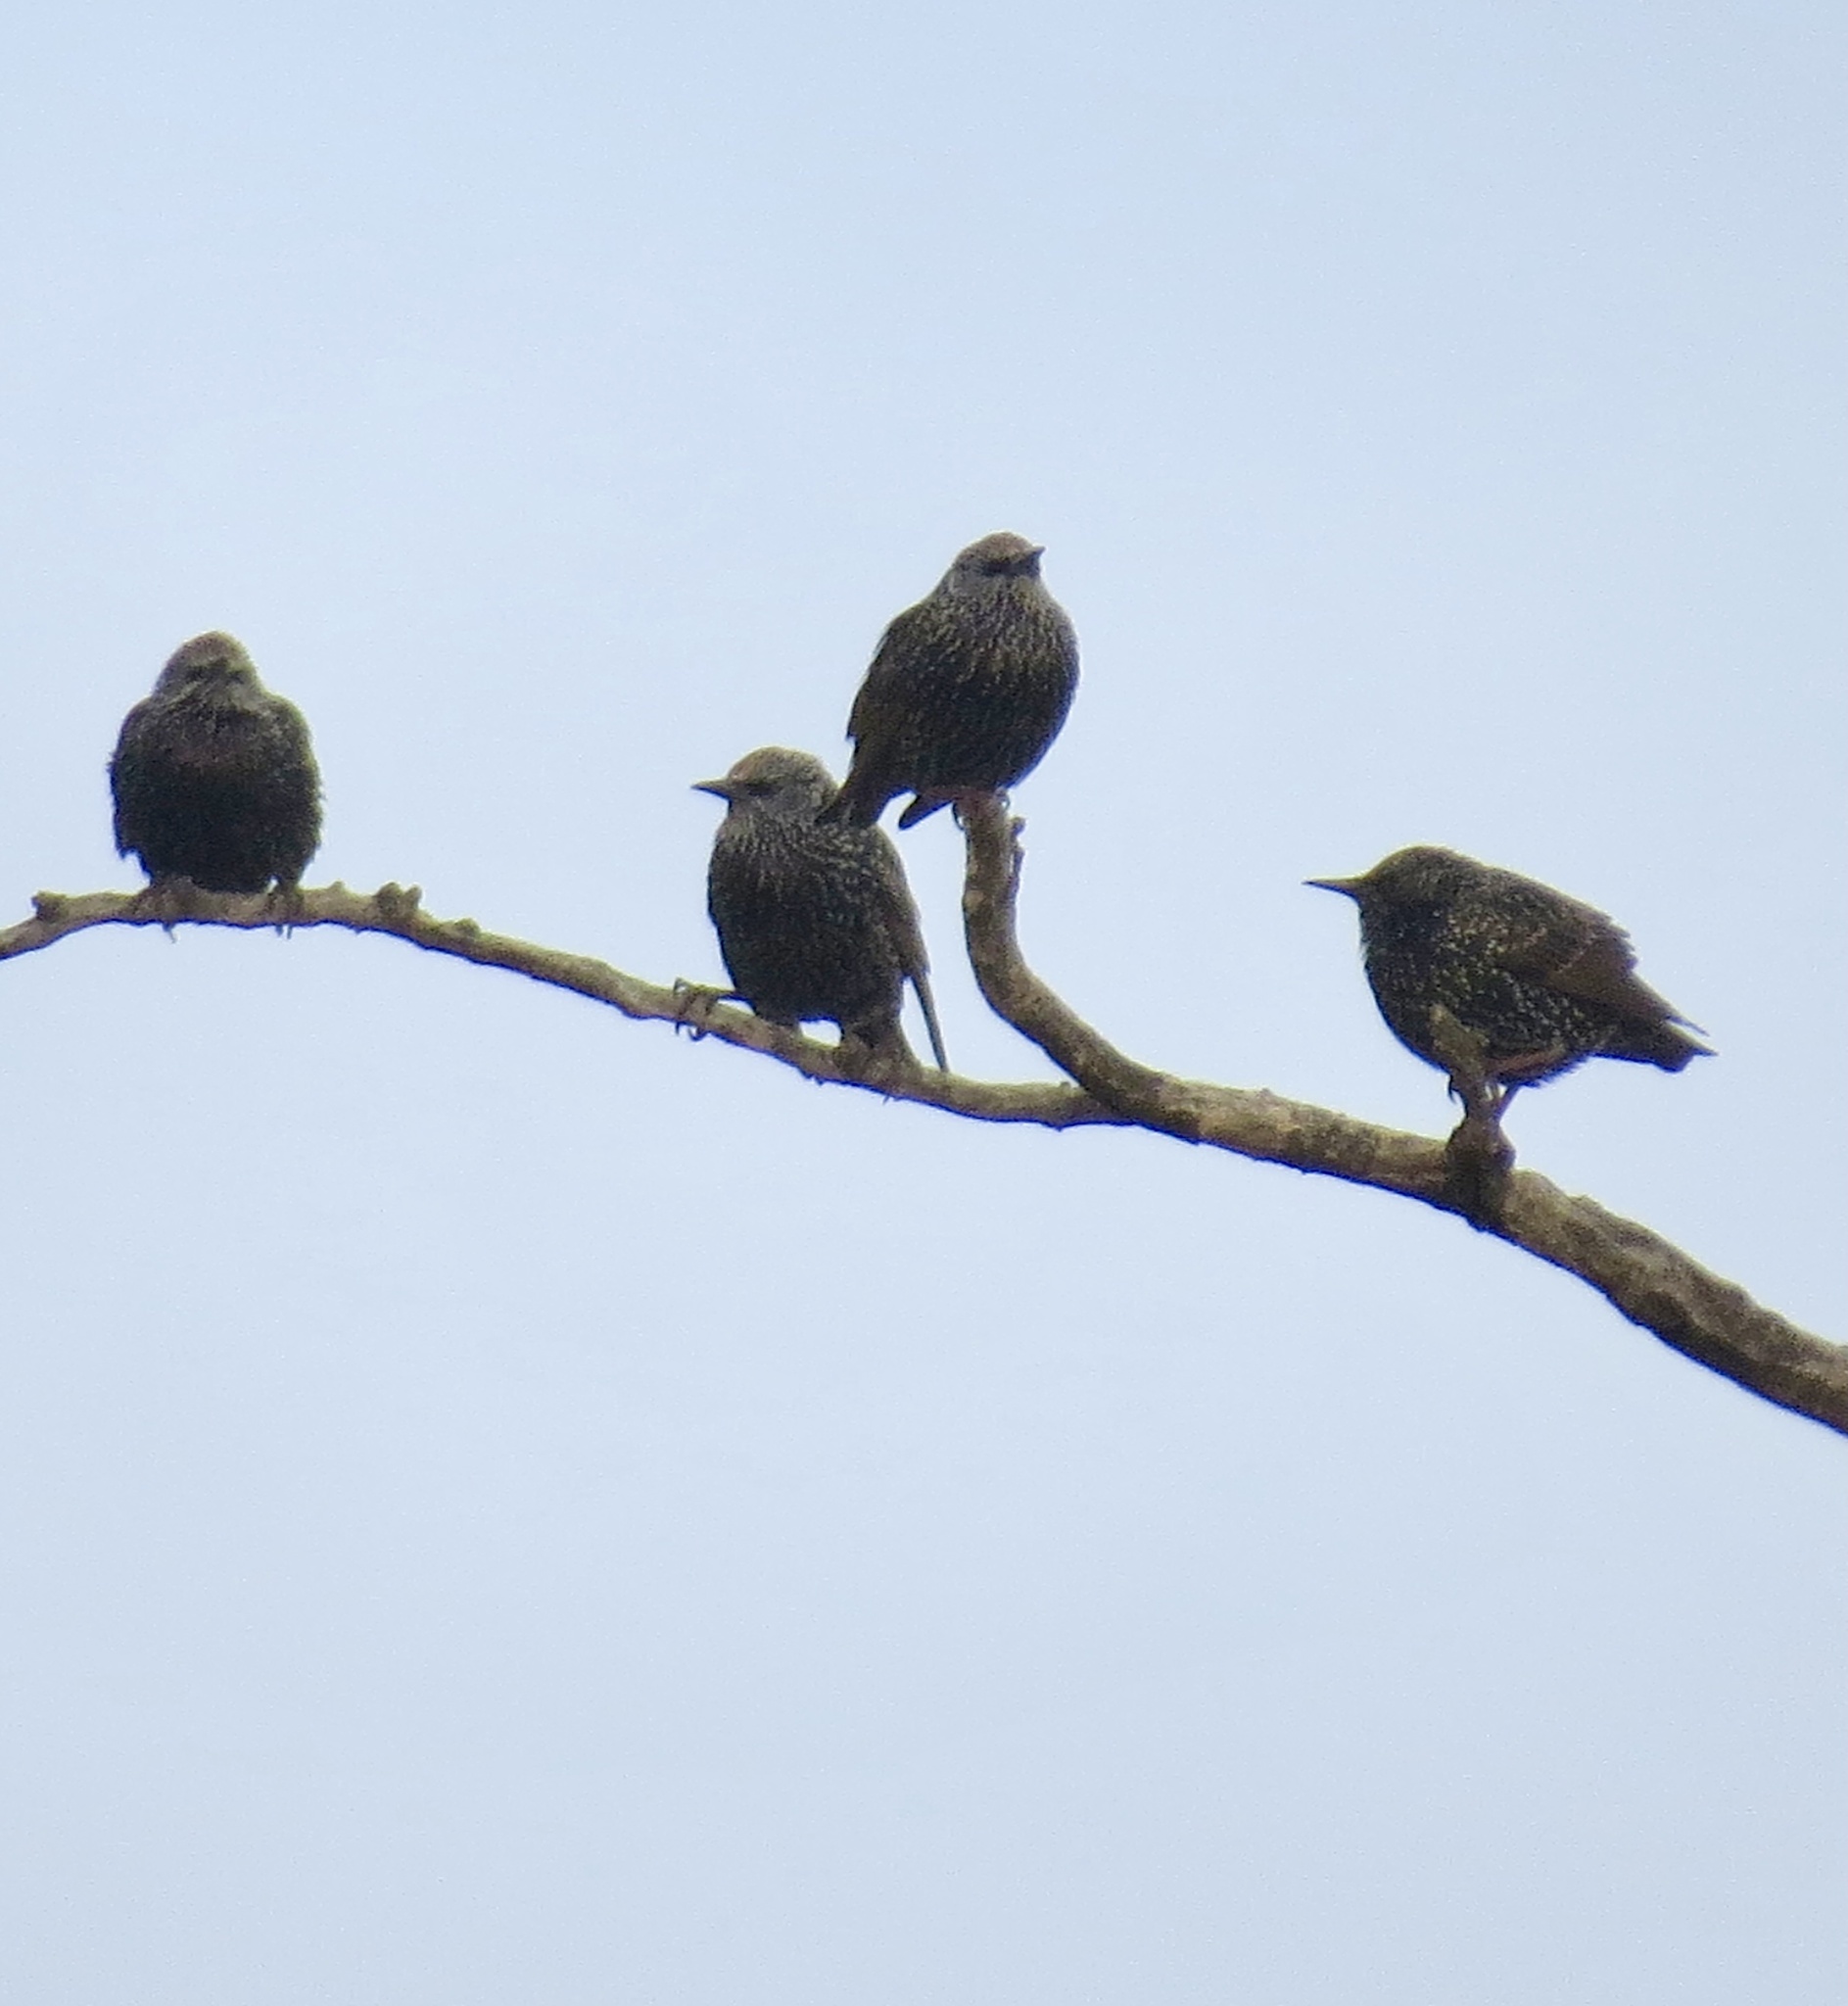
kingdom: Animalia
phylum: Chordata
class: Aves
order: Passeriformes
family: Sturnidae
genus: Sturnus
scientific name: Sturnus vulgaris
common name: Common starling
